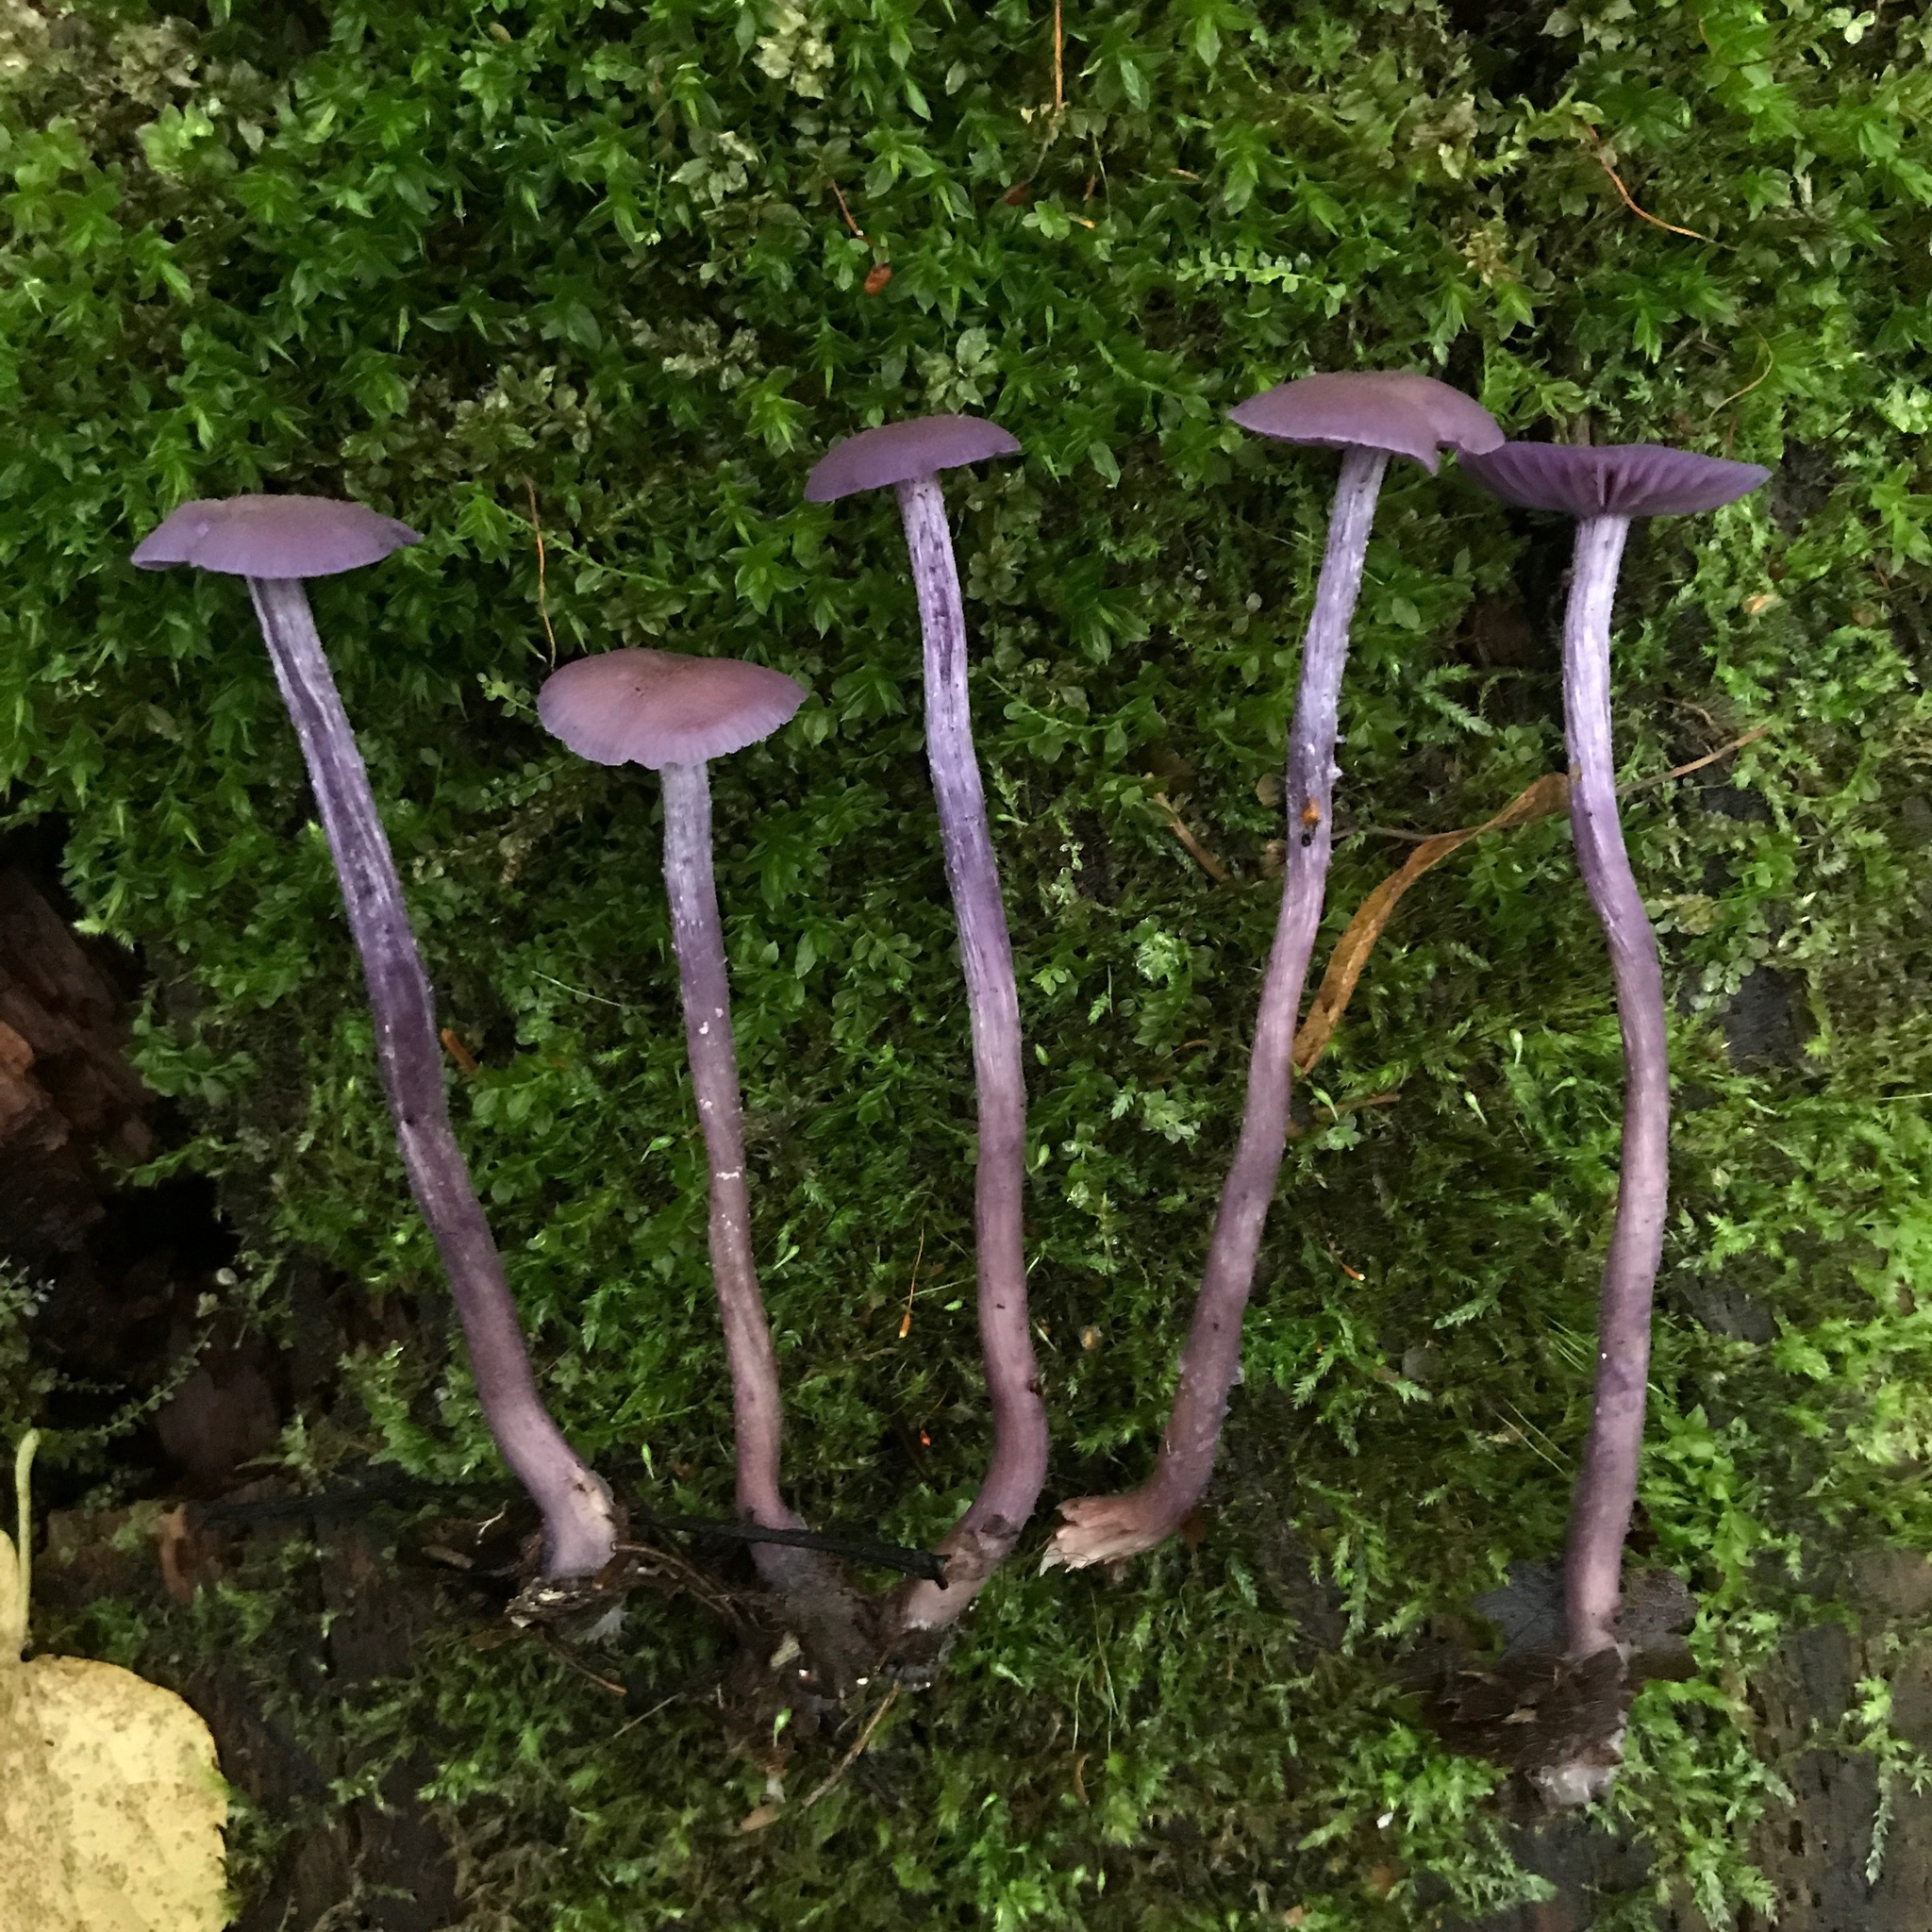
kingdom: Fungi
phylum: Basidiomycota
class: Agaricomycetes
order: Agaricales
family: Hydnangiaceae
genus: Laccaria
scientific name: Laccaria amethystina
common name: Amethyst deceiver
